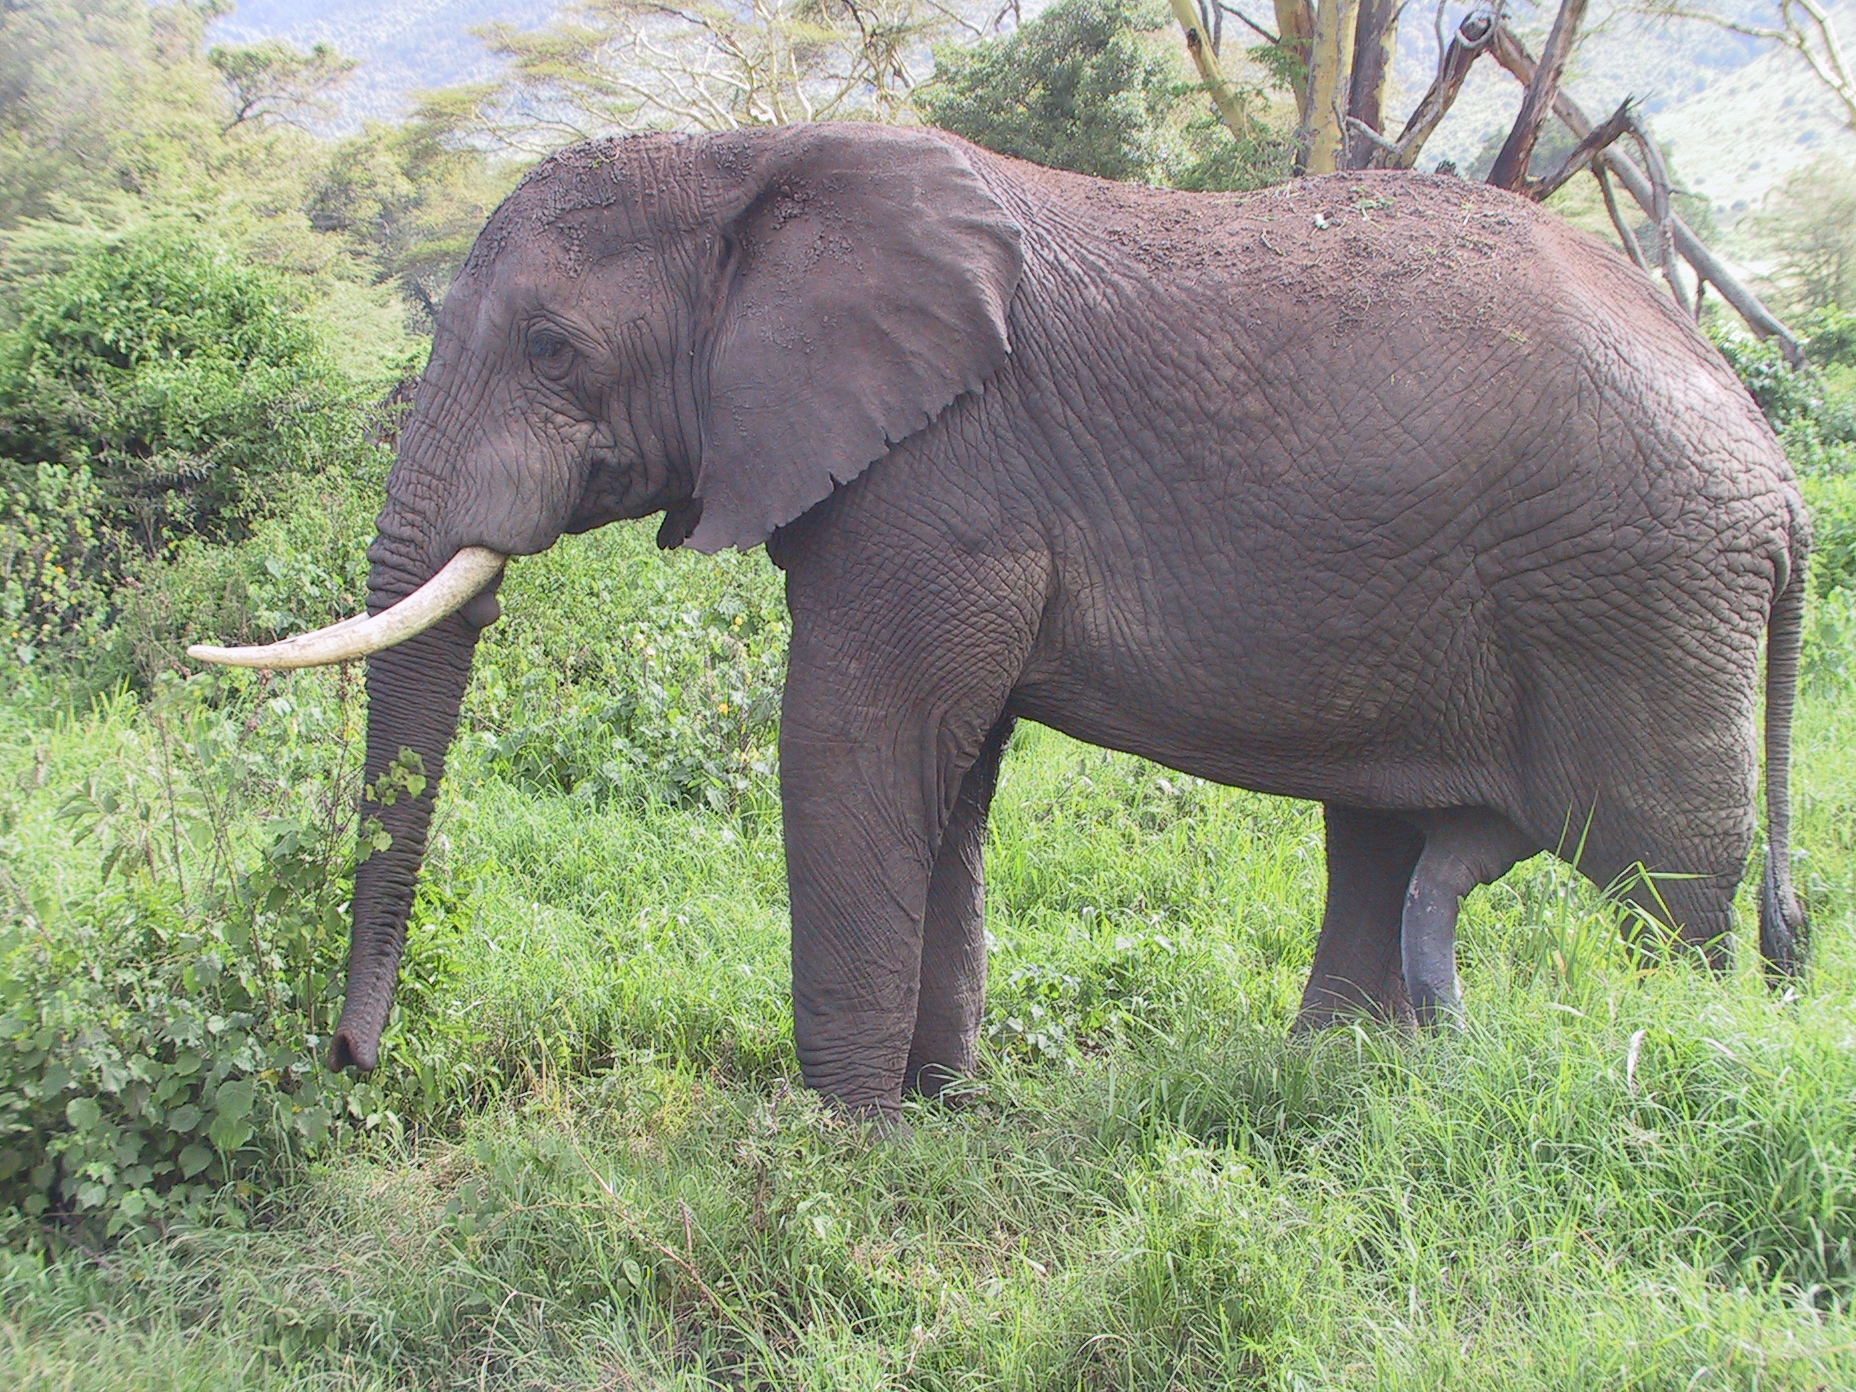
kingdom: Animalia
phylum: Chordata
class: Mammalia
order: Proboscidea
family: Elephantidae
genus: Loxodonta
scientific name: Loxodonta africana
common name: African elephant
